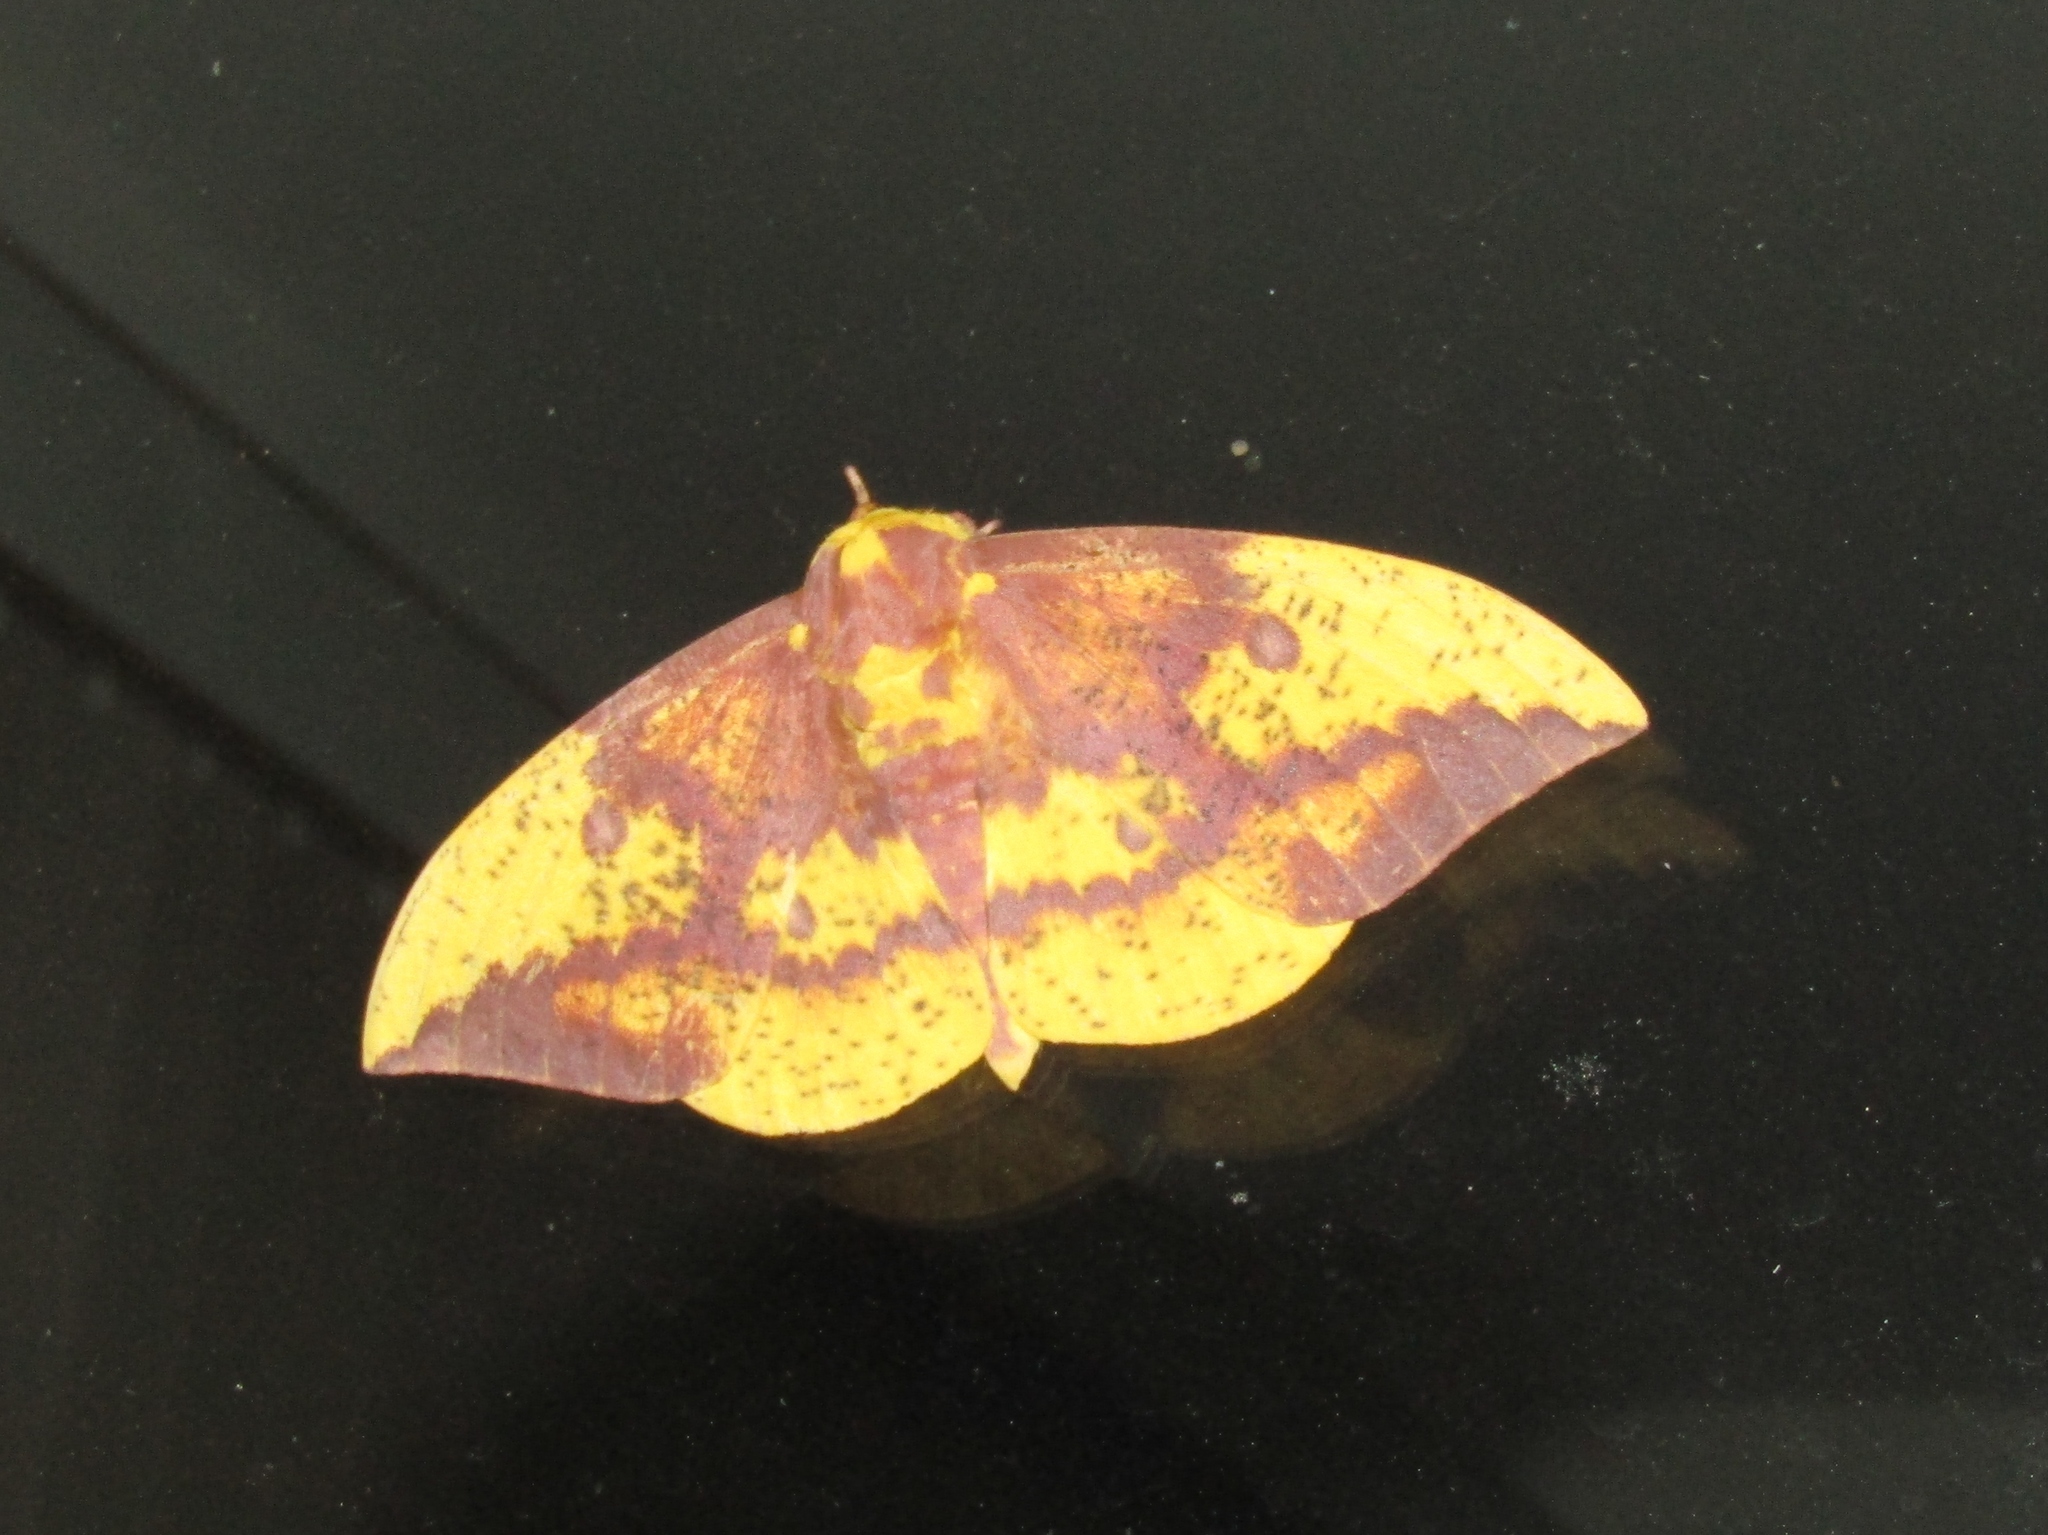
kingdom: Animalia
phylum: Arthropoda
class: Insecta
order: Lepidoptera
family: Saturniidae
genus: Eacles
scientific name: Eacles imperialis
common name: Imperial moth
